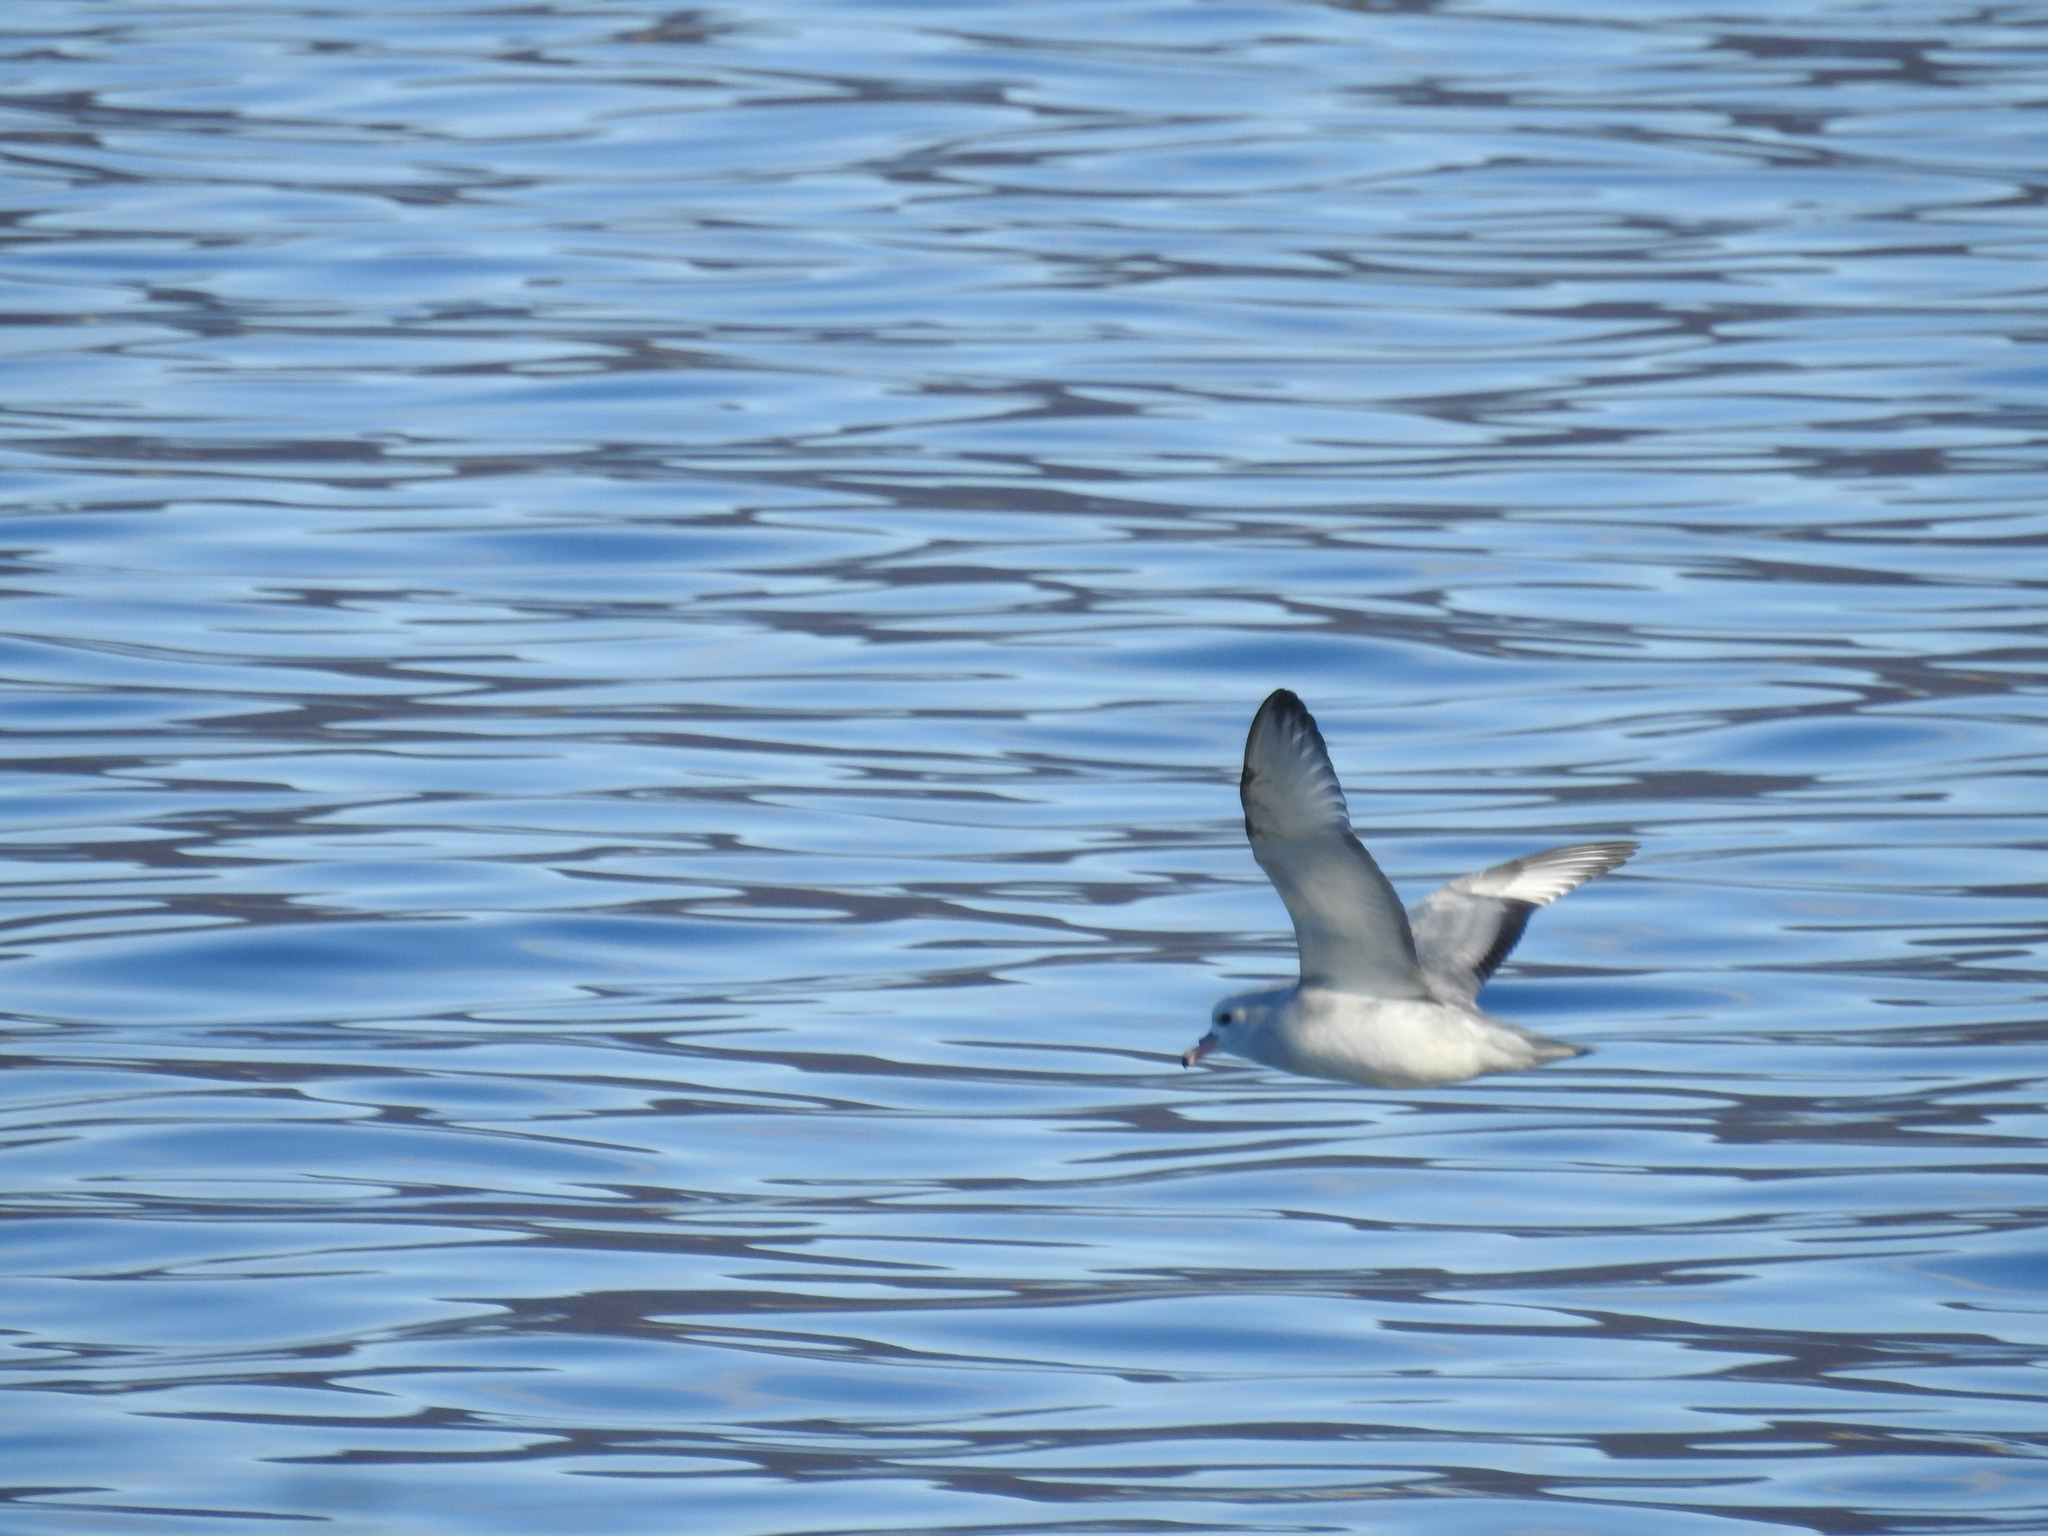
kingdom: Animalia
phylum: Chordata
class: Aves
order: Procellariiformes
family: Procellariidae
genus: Fulmarus
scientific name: Fulmarus glacialoides
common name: Southern fulmar
